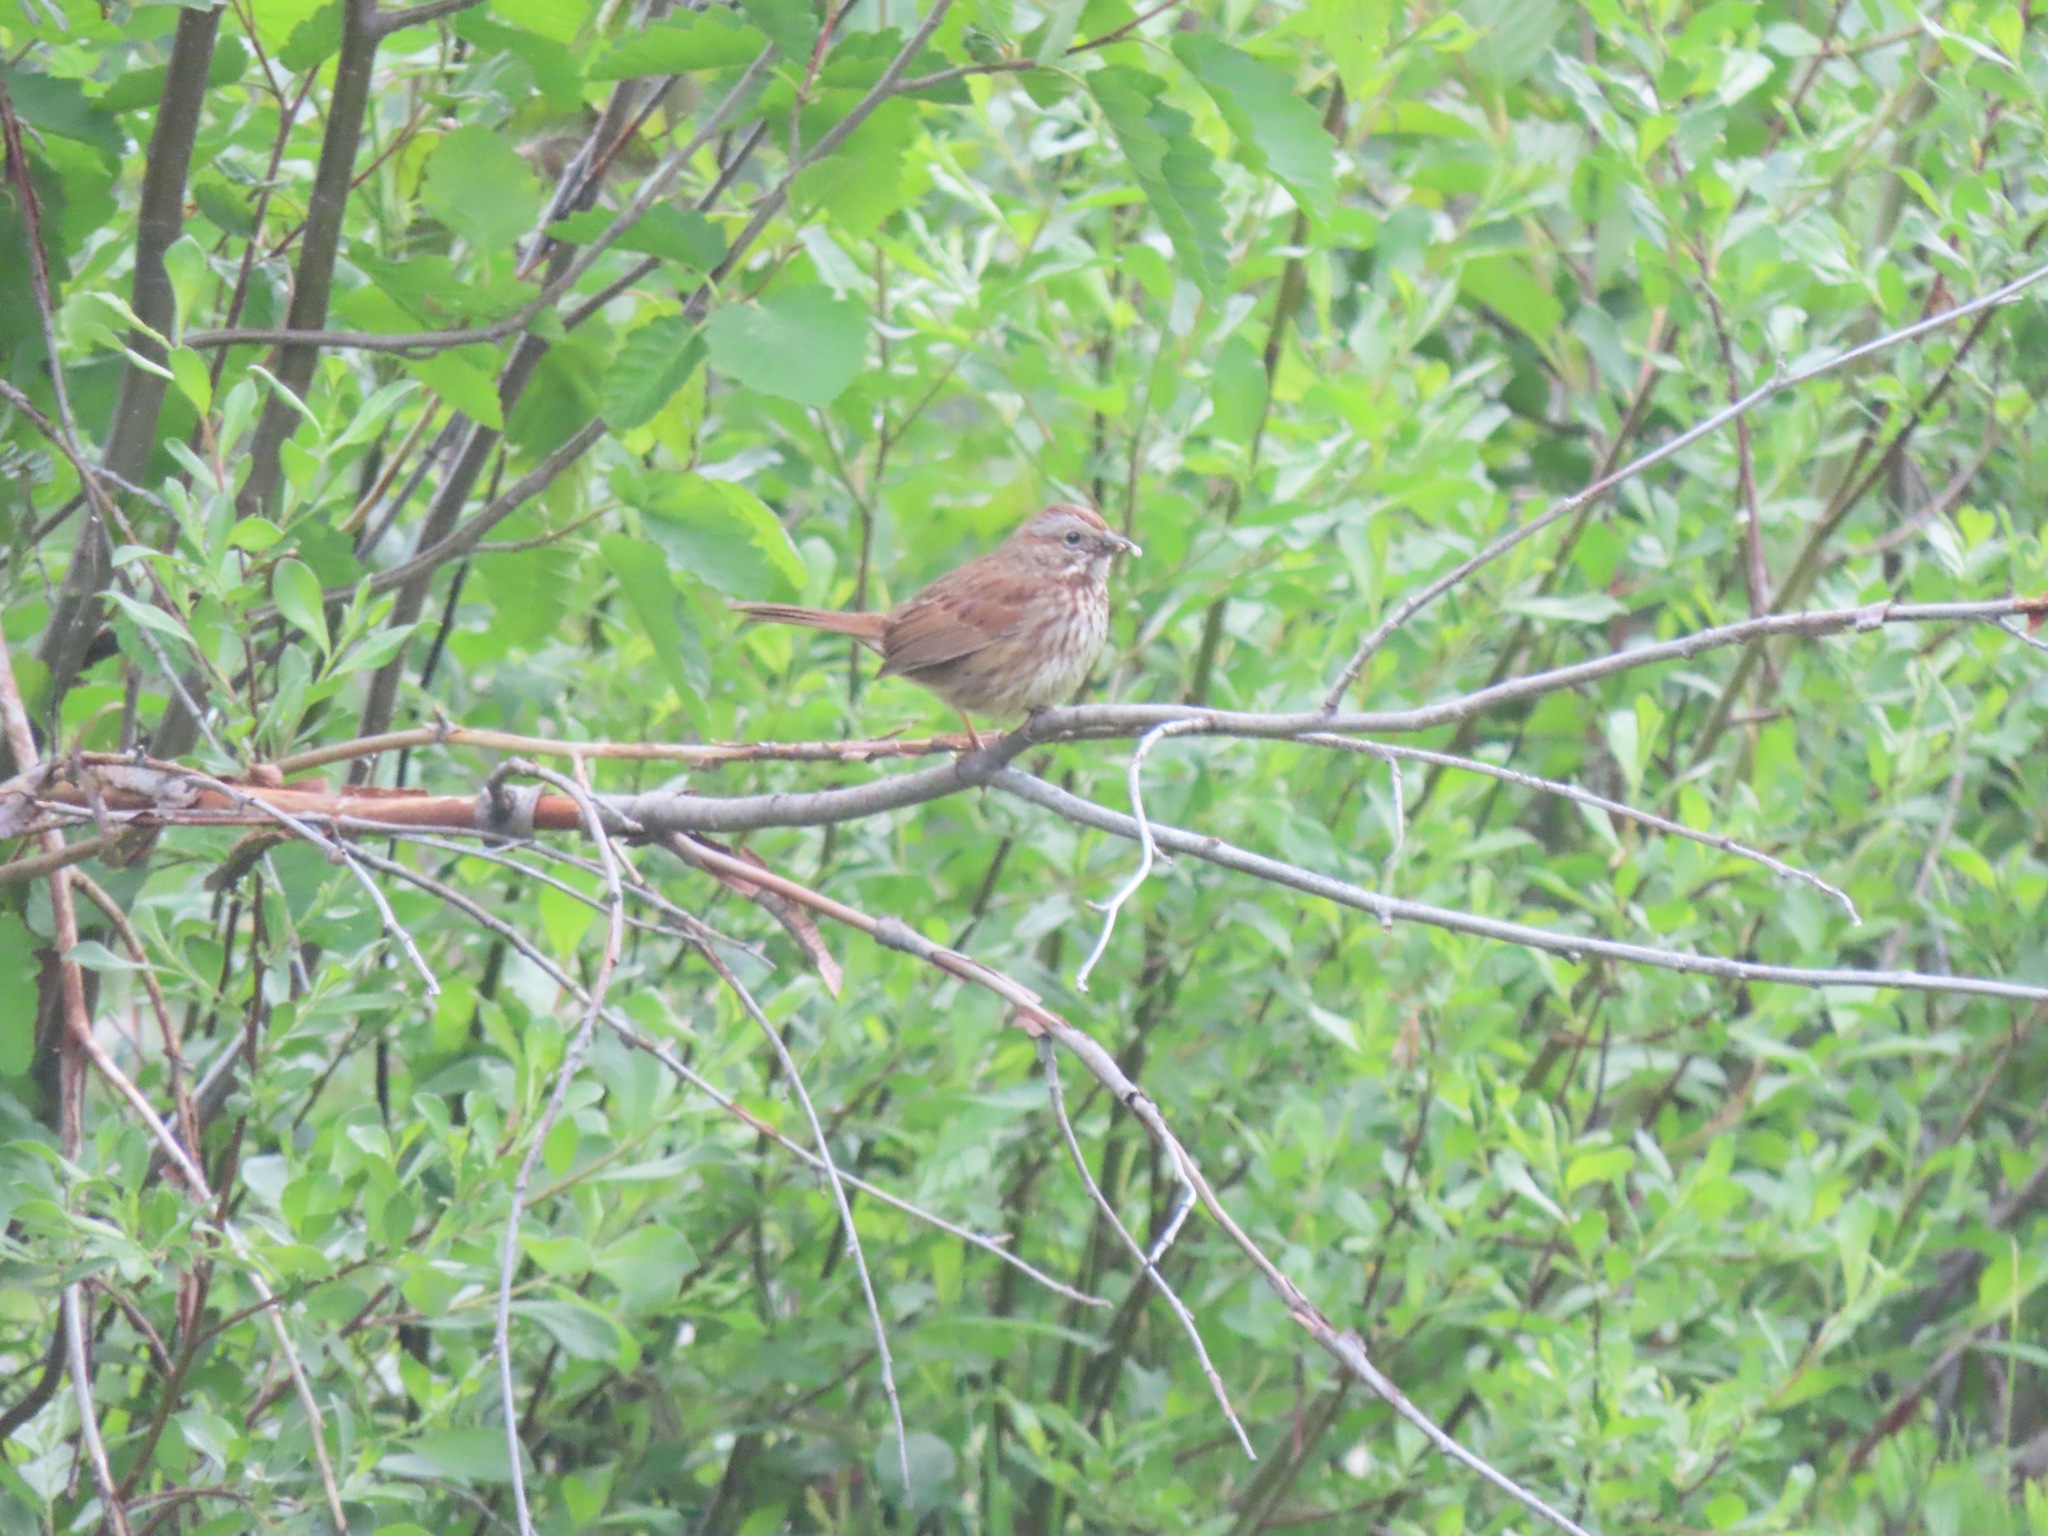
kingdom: Animalia
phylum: Chordata
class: Aves
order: Passeriformes
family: Passerellidae
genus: Melospiza
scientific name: Melospiza melodia
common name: Song sparrow
